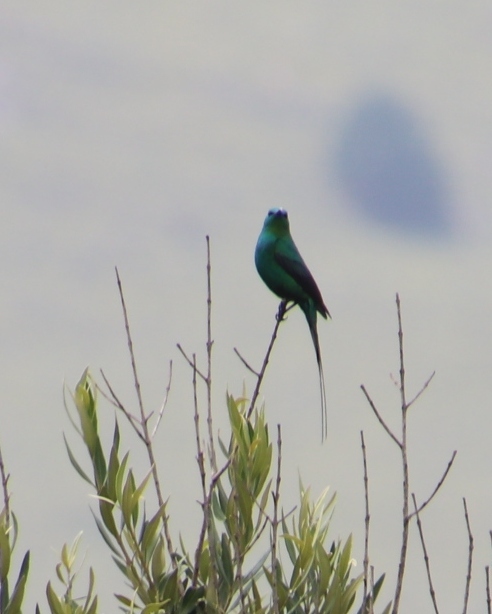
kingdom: Animalia
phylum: Chordata
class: Aves
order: Passeriformes
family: Nectariniidae
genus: Nectarinia
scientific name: Nectarinia famosa
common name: Malachite sunbird
